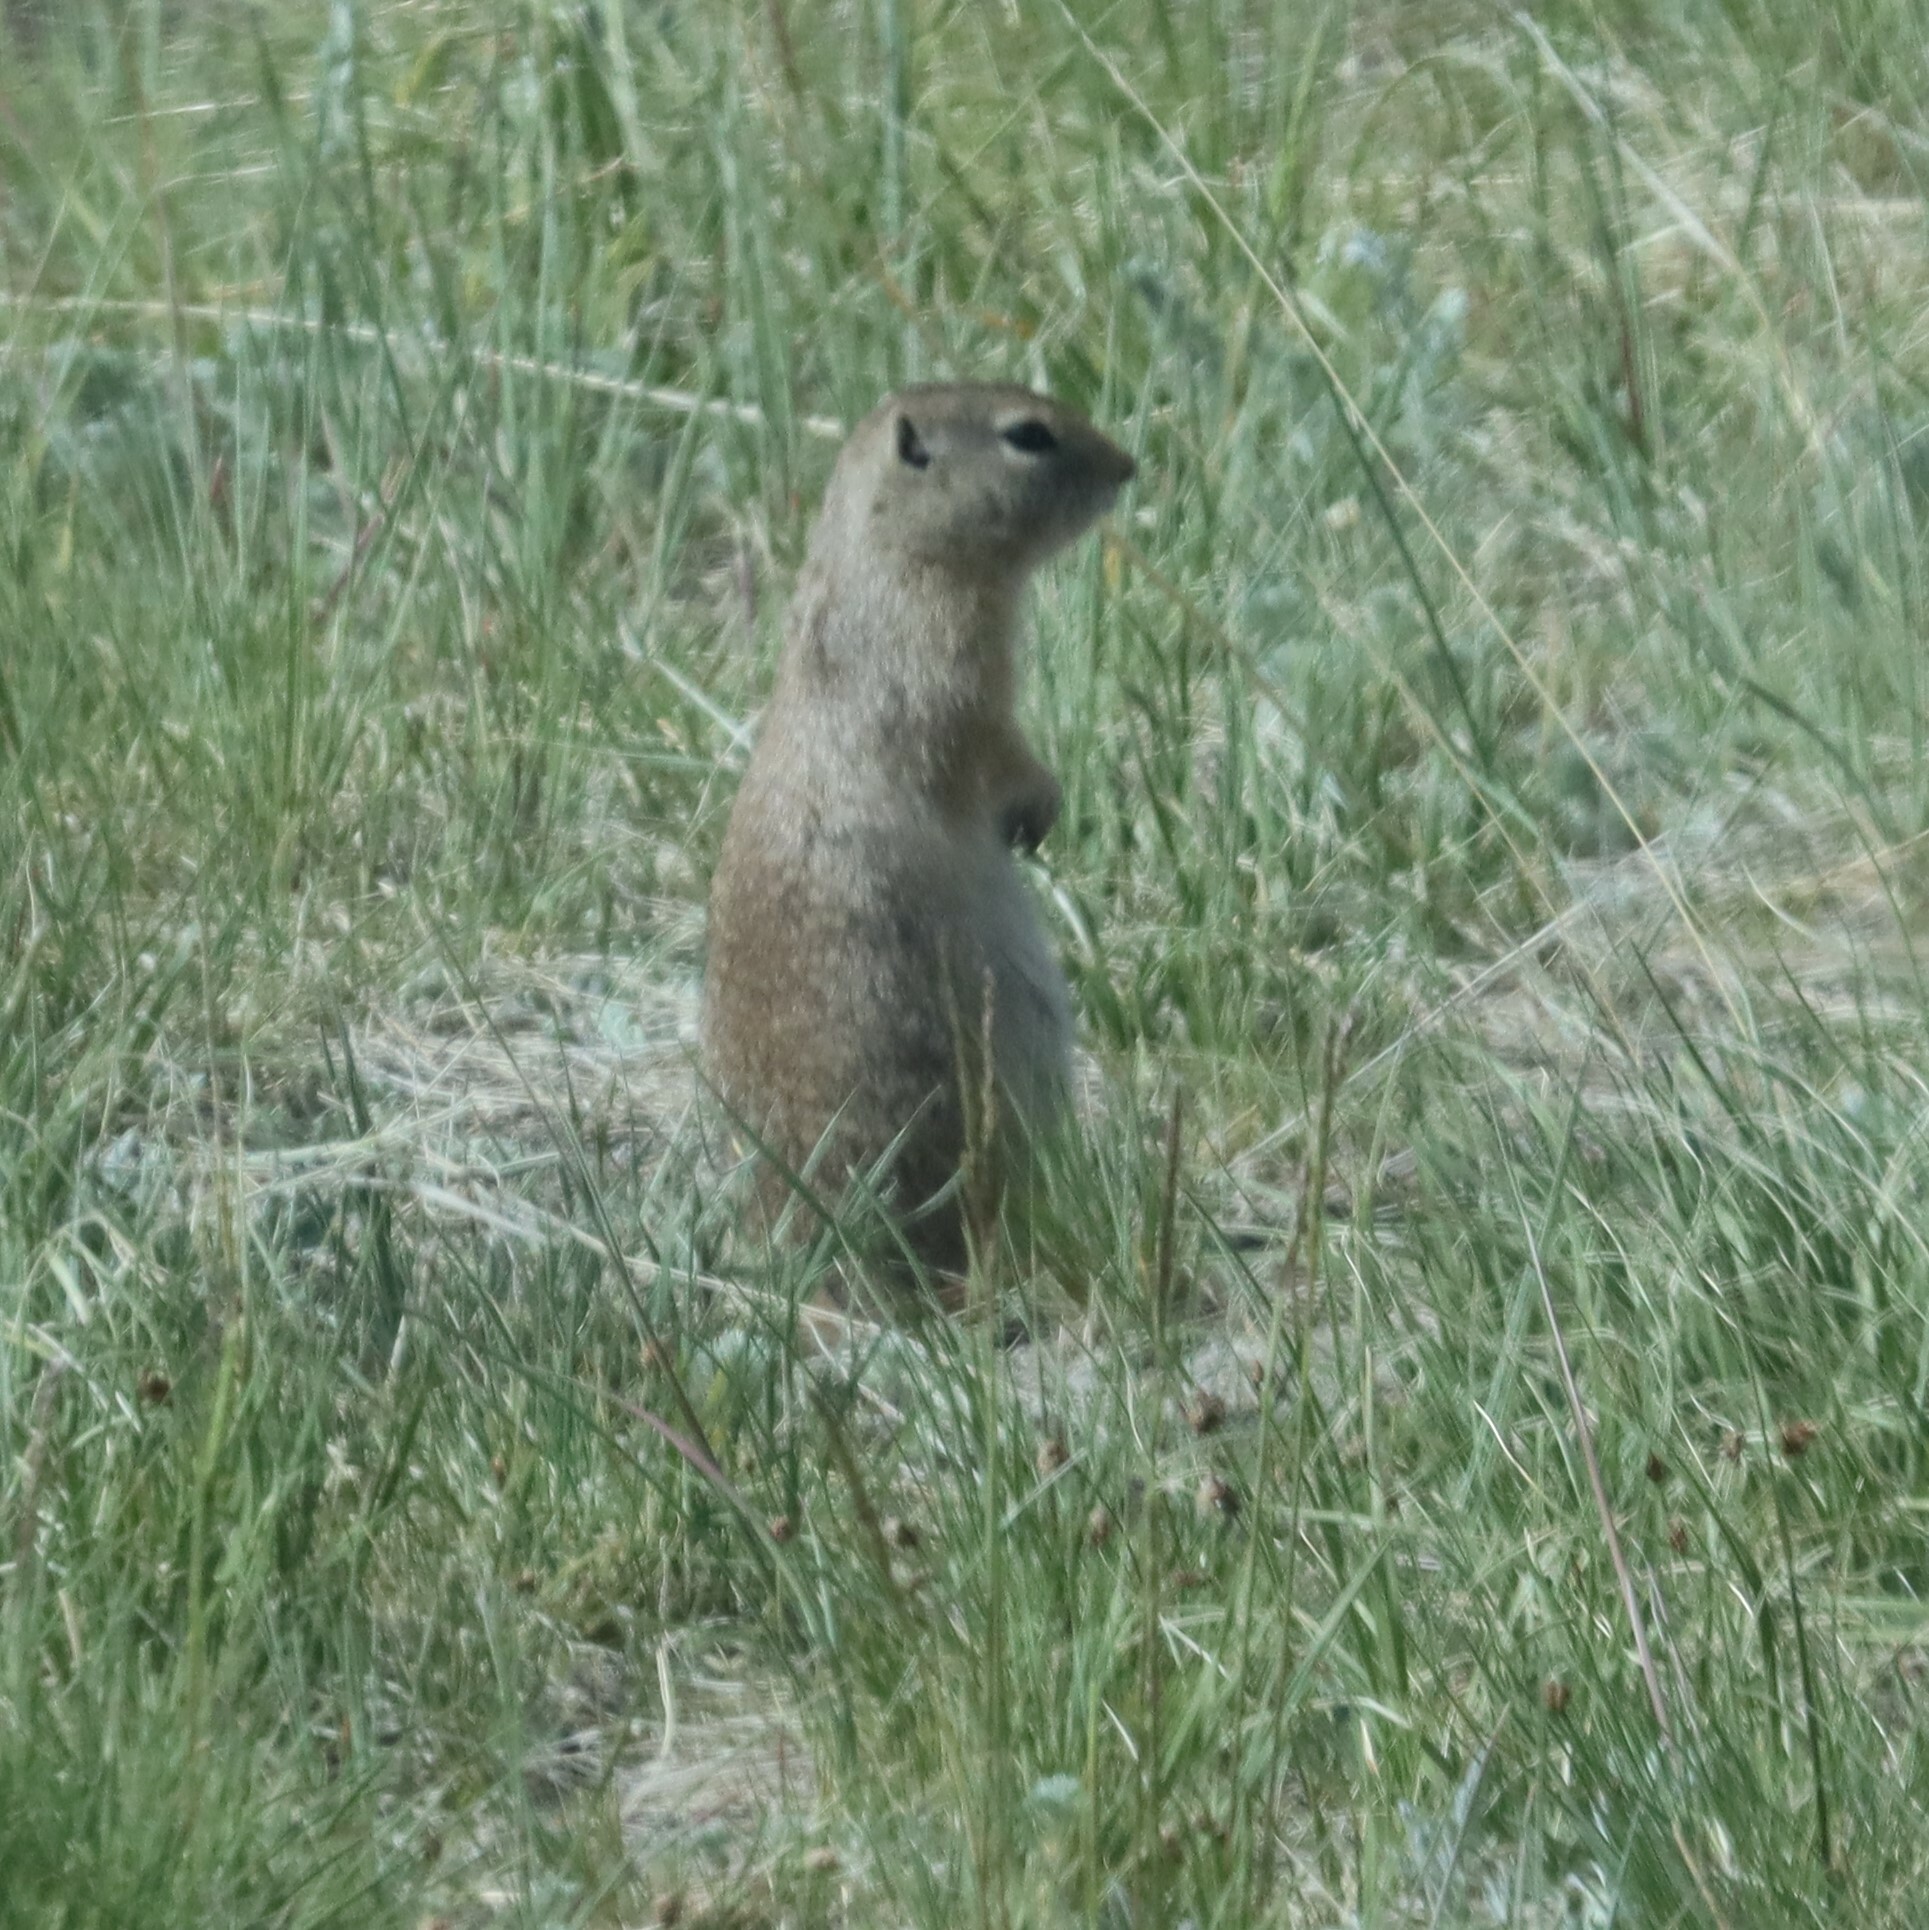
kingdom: Animalia
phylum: Chordata
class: Mammalia
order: Rodentia
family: Sciuridae
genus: Urocitellus
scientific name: Urocitellus elegans
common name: Wyoming ground squirrel
